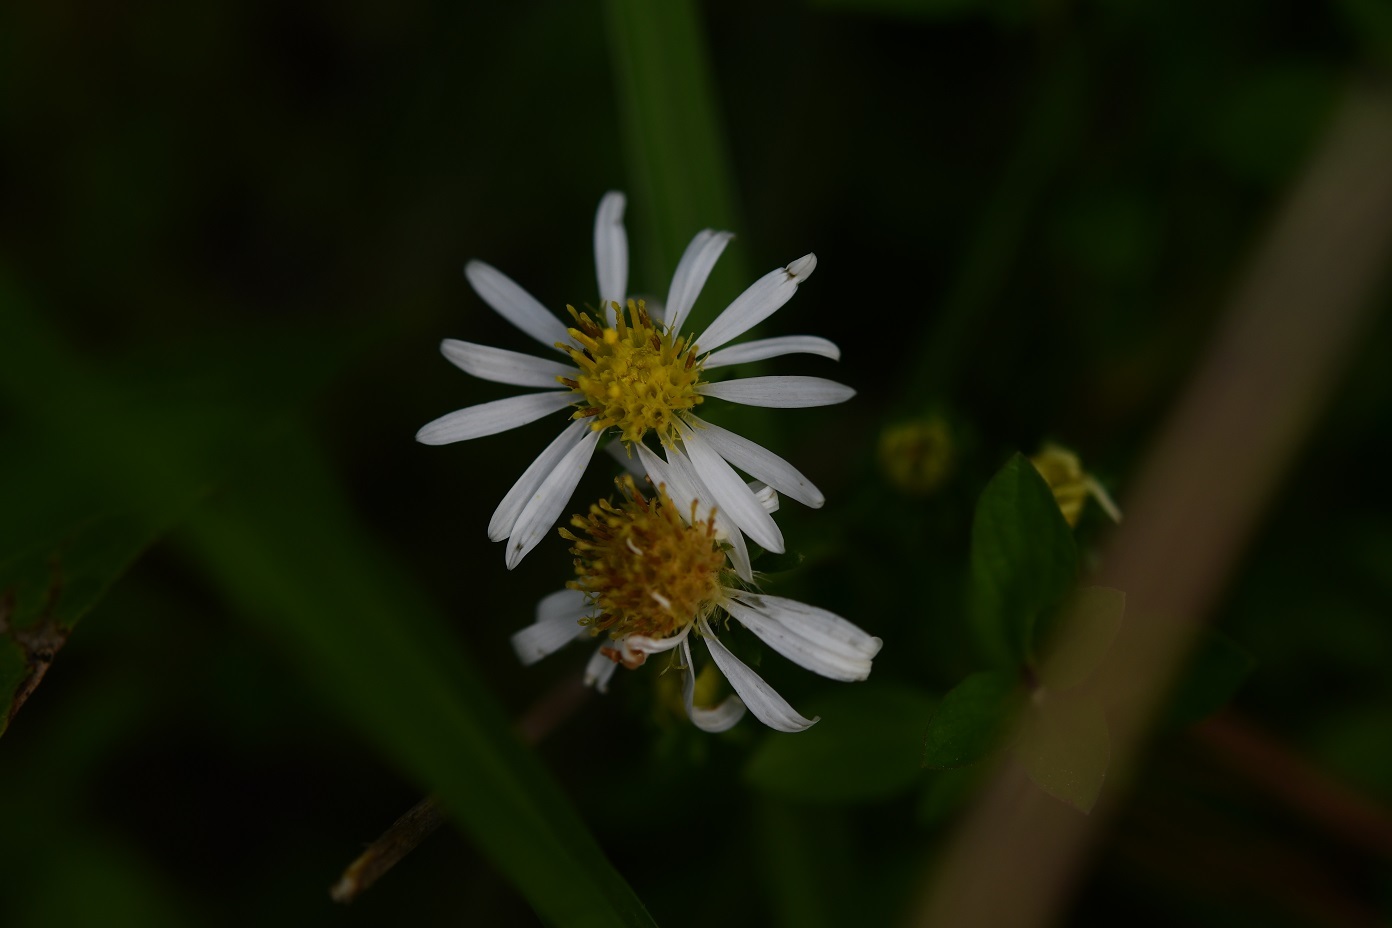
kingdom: Plantae
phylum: Tracheophyta
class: Magnoliopsida
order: Asterales
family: Asteraceae
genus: Symphyotrichum
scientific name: Symphyotrichum bullatum
